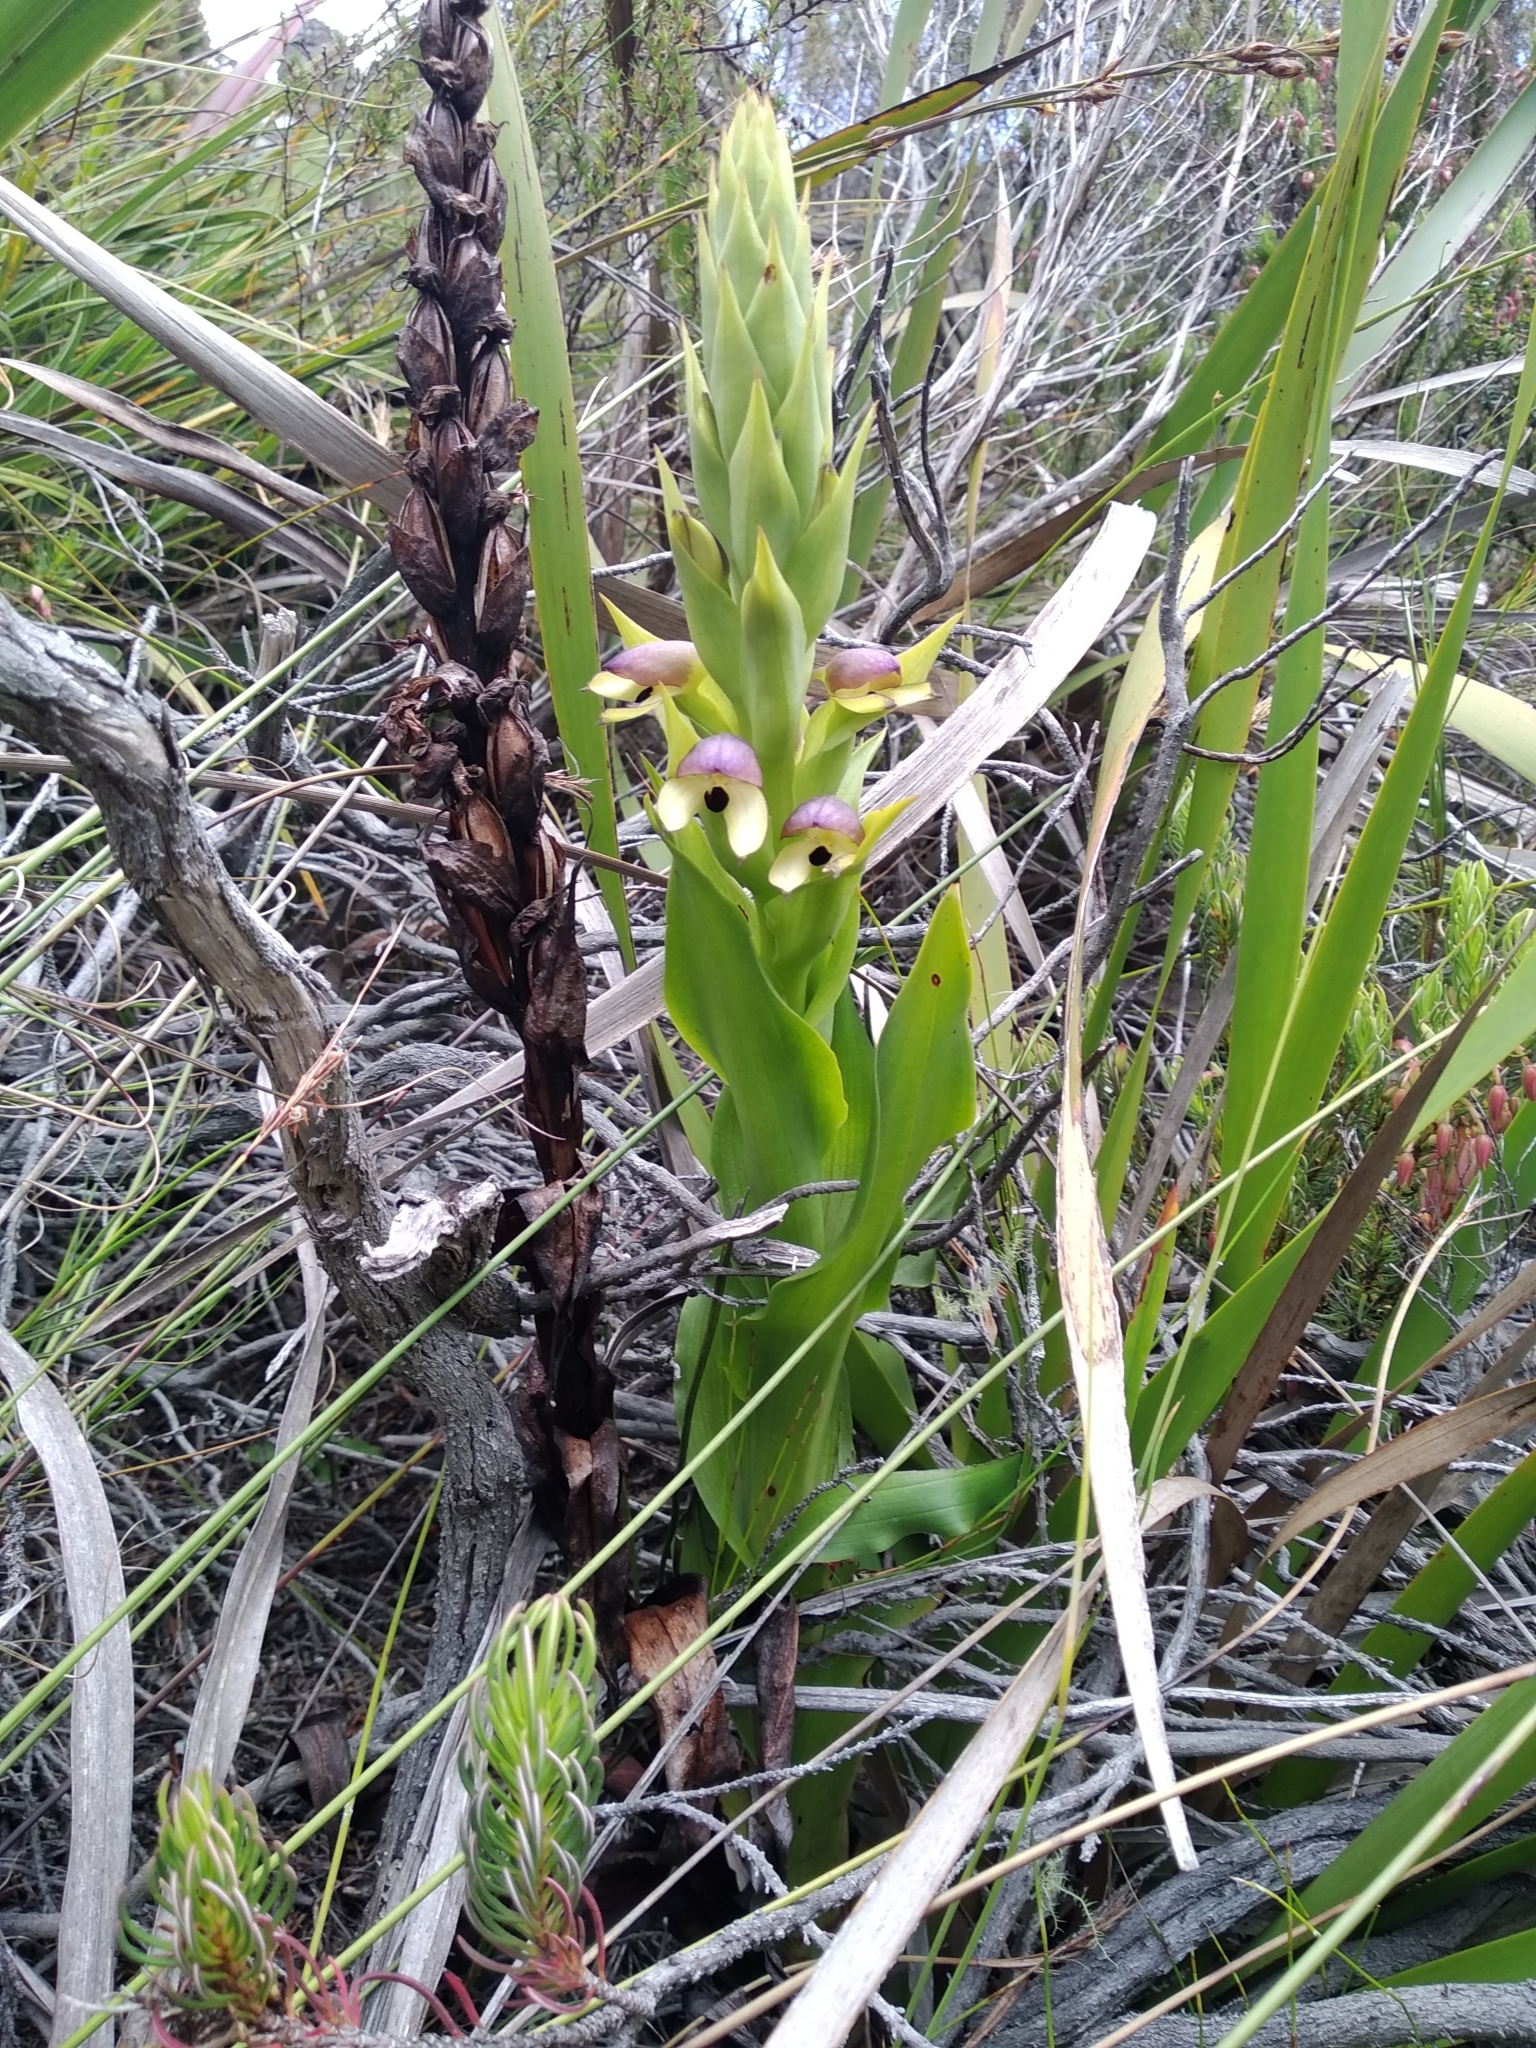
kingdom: Plantae
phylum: Tracheophyta
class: Liliopsida
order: Asparagales
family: Orchidaceae
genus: Disa
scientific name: Disa cornuta
